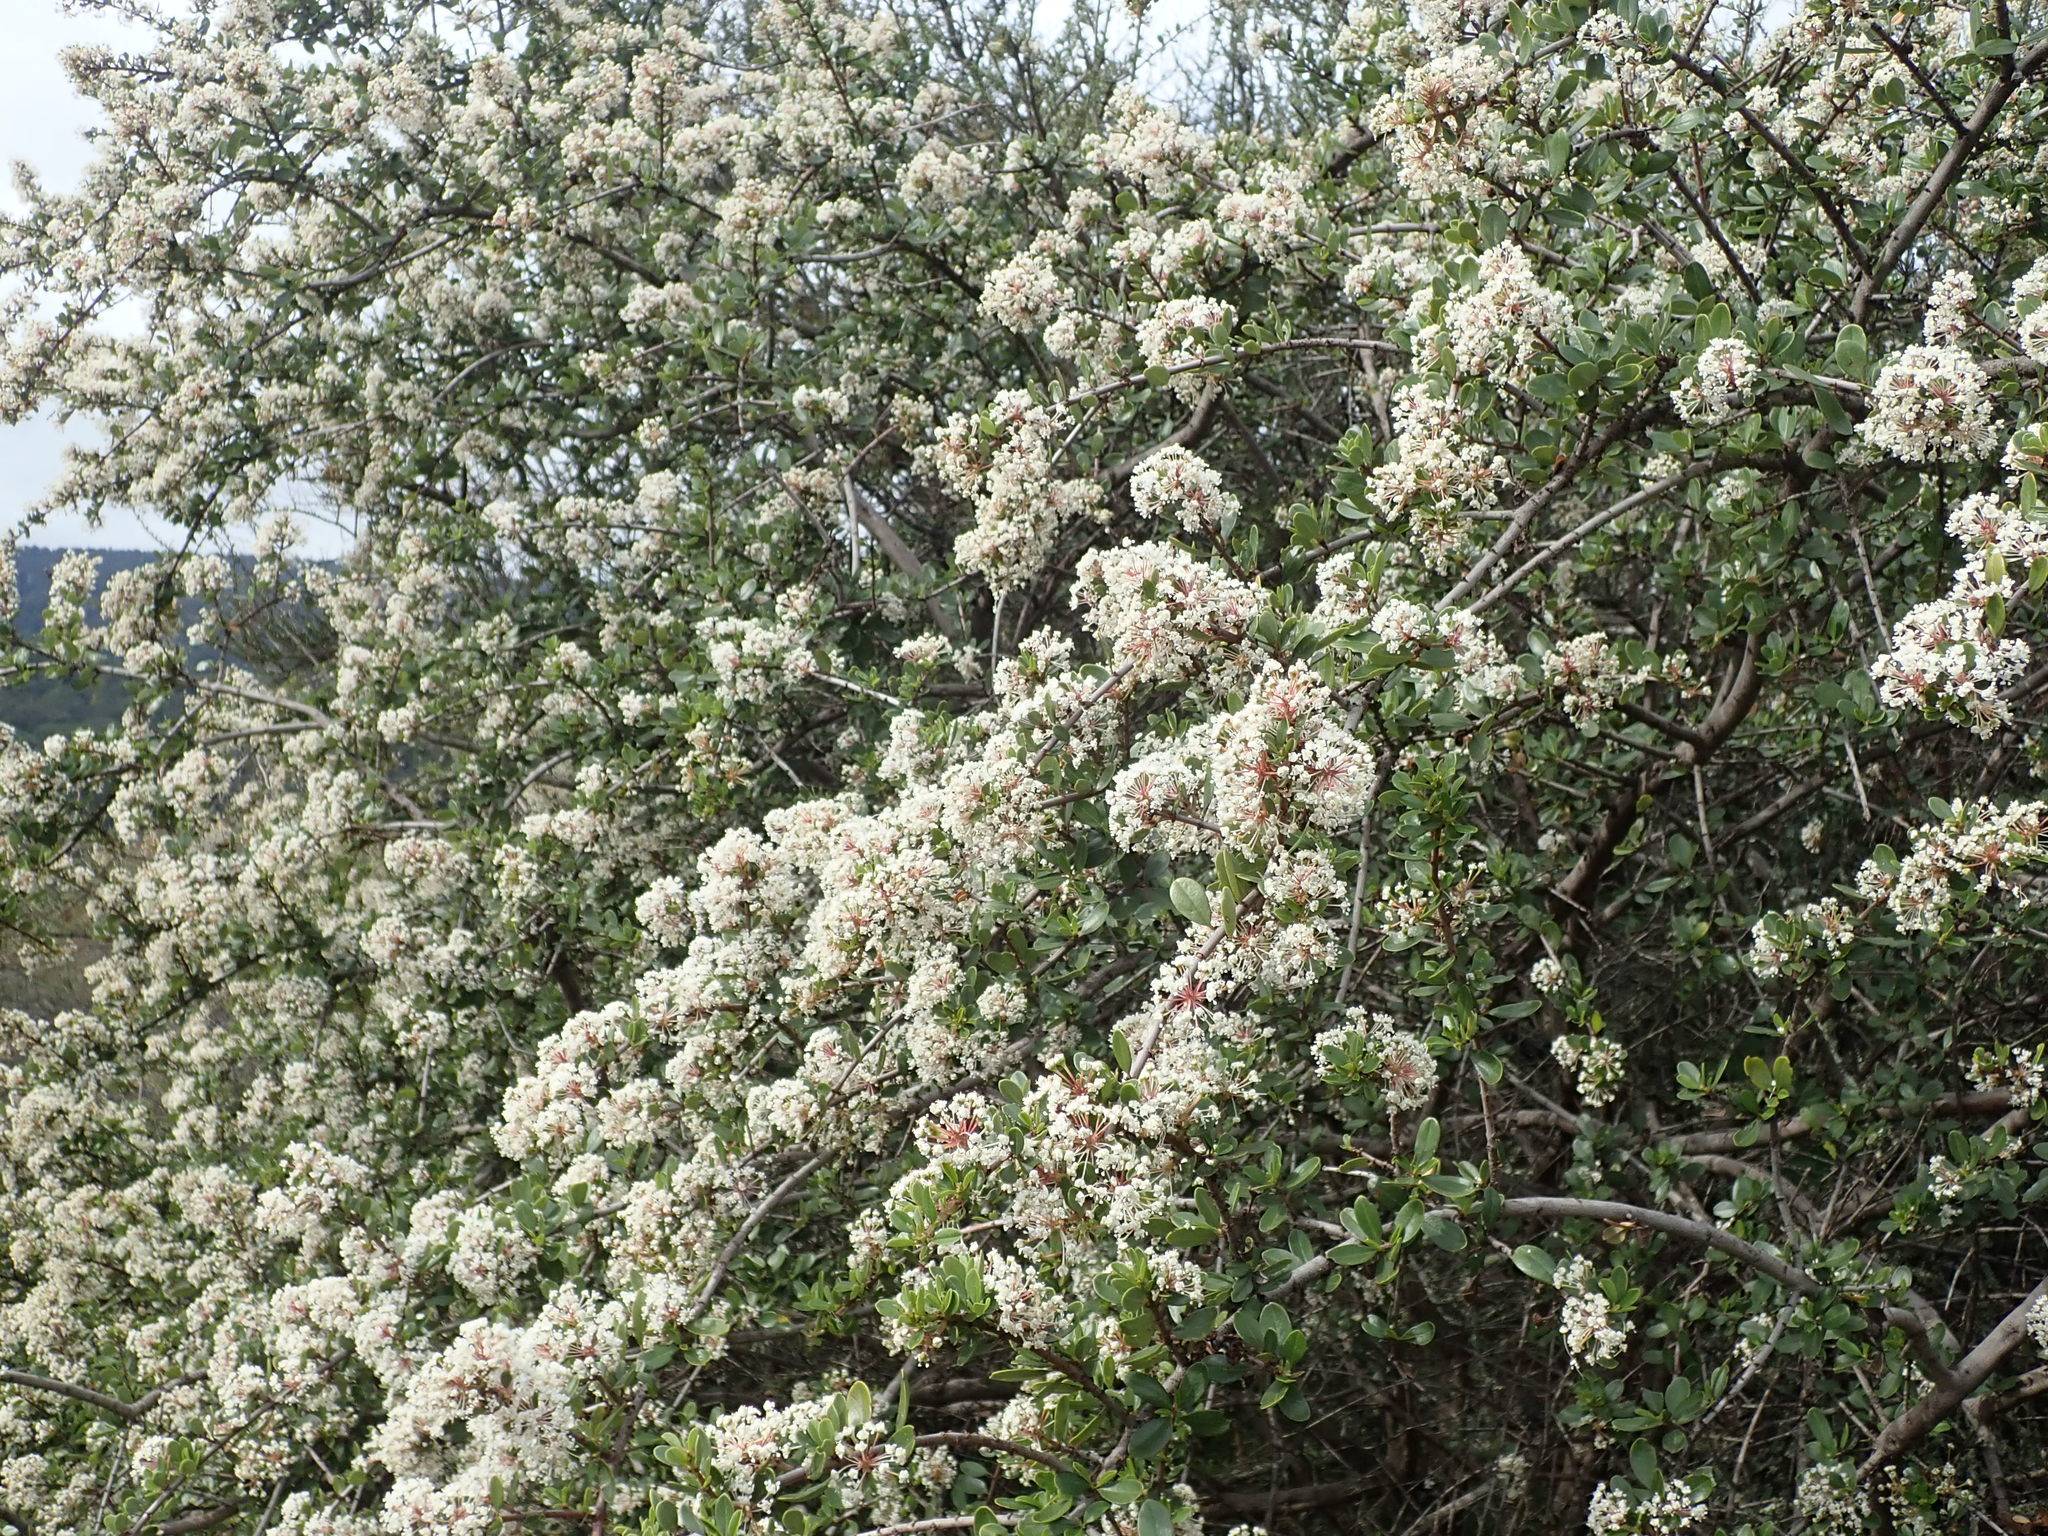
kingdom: Plantae
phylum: Tracheophyta
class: Magnoliopsida
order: Rosales
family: Rhamnaceae
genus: Ceanothus
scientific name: Ceanothus cuneatus
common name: Cuneate ceanothus
